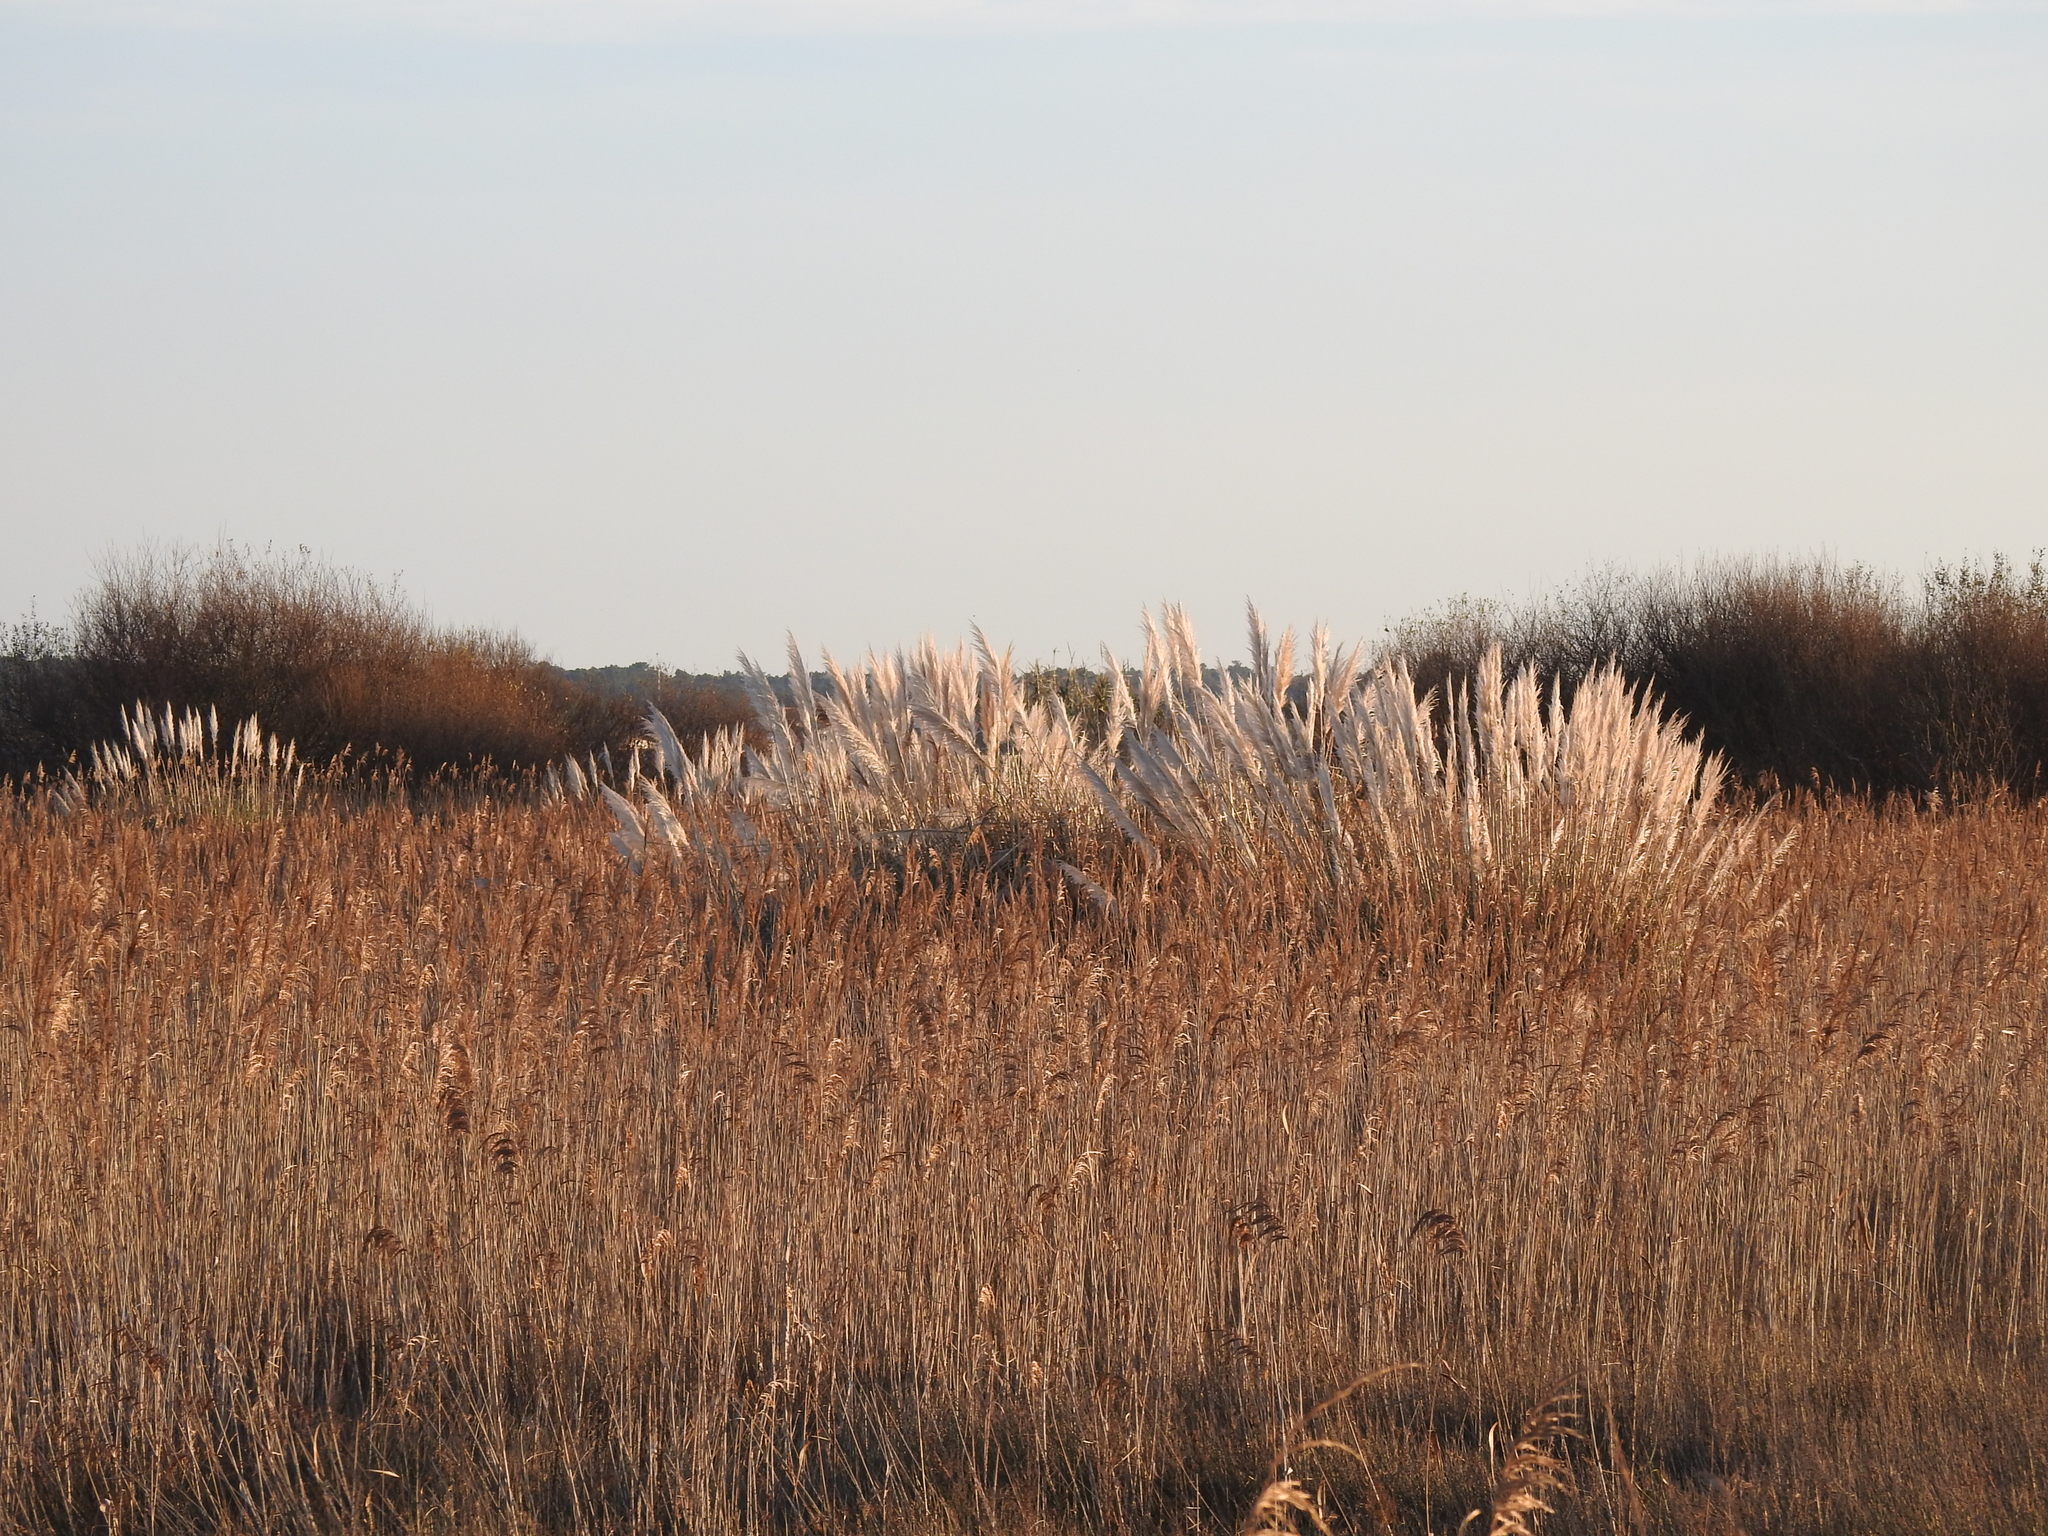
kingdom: Plantae
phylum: Tracheophyta
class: Liliopsida
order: Poales
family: Poaceae
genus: Cortaderia
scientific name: Cortaderia selloana
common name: Uruguayan pampas grass
